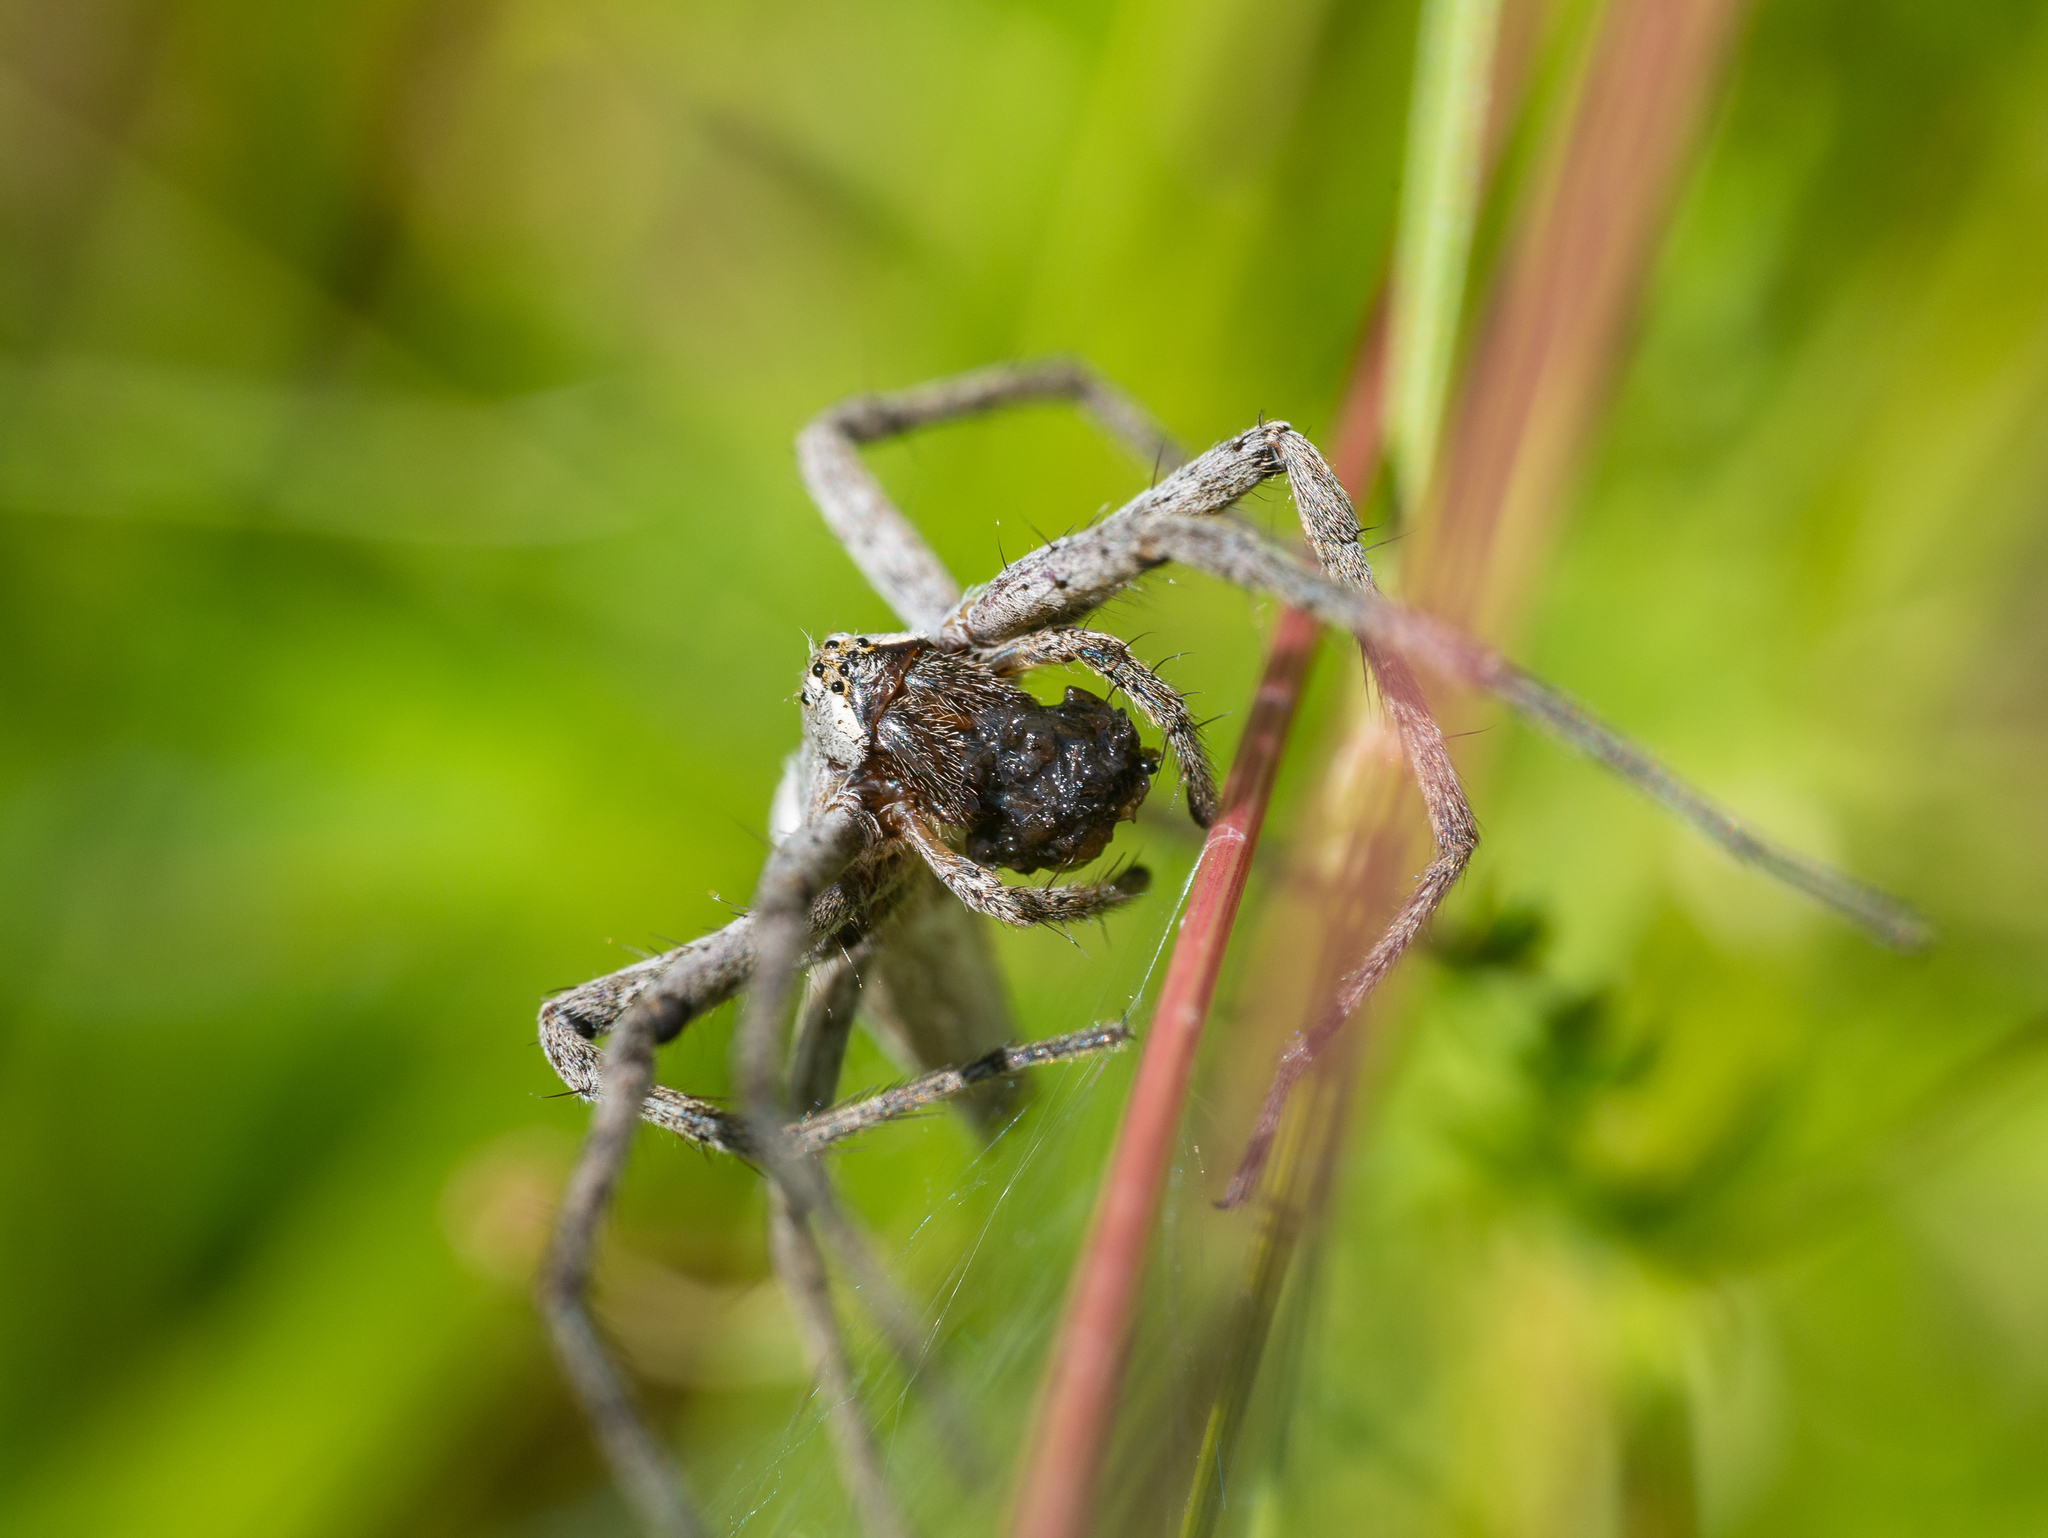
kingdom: Animalia
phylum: Arthropoda
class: Arachnida
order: Araneae
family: Pisauridae
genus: Pisaura
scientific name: Pisaura mirabilis
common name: Tent spider
